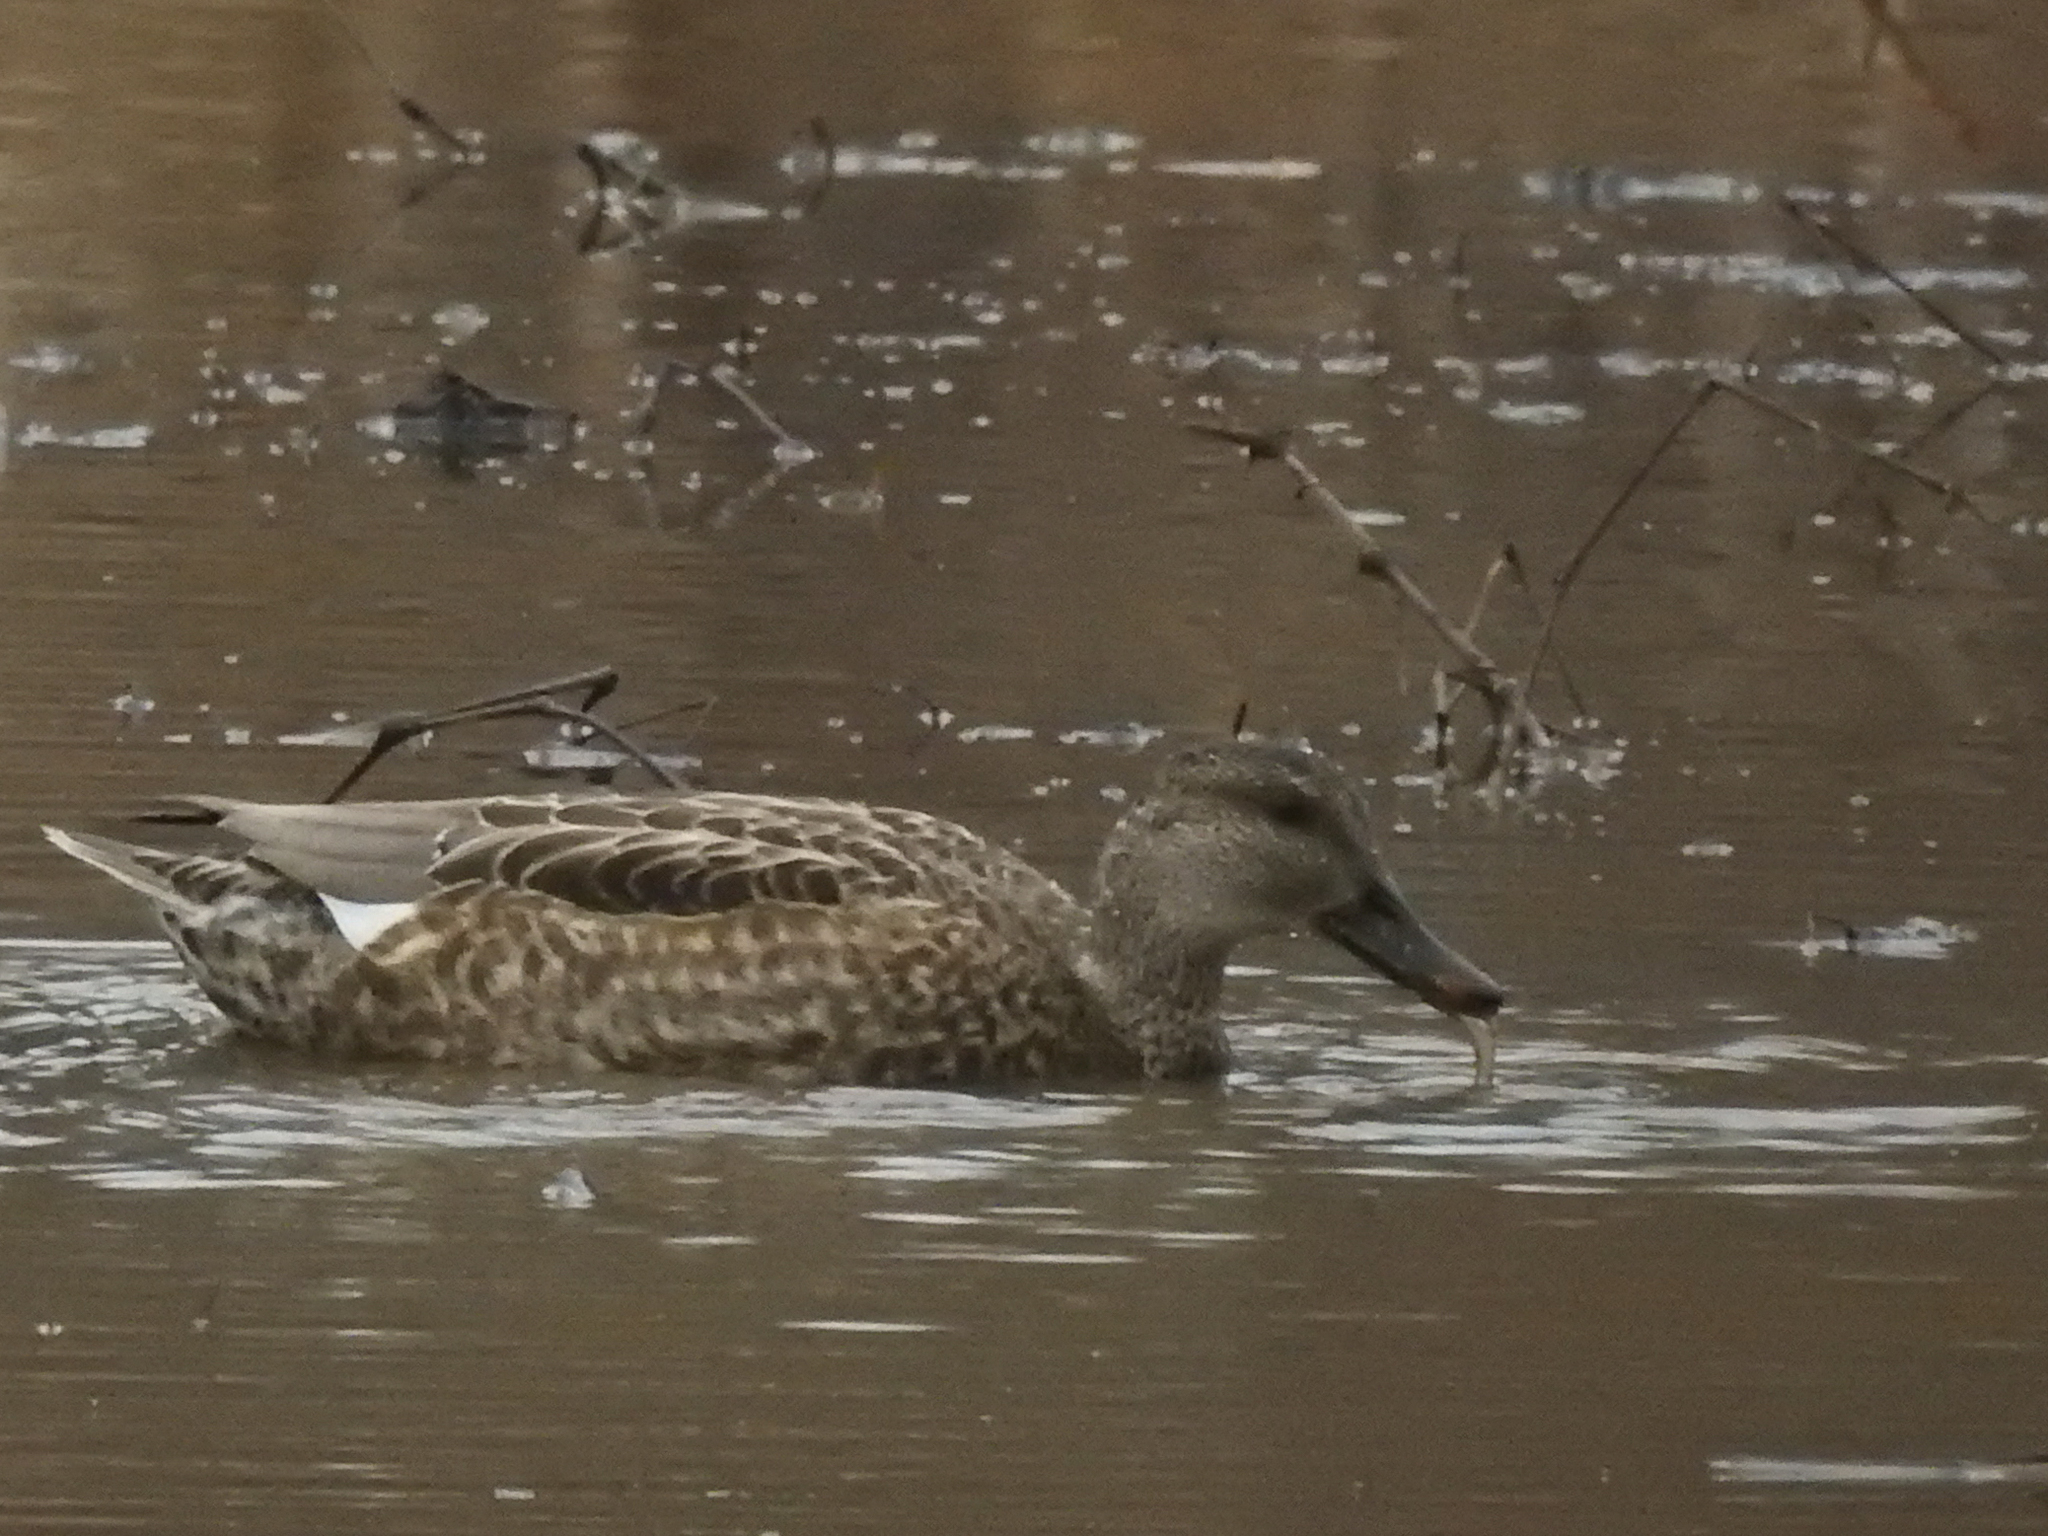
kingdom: Animalia
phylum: Chordata
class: Aves
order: Anseriformes
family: Anatidae
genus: Mareca
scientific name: Mareca strepera
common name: Gadwall
